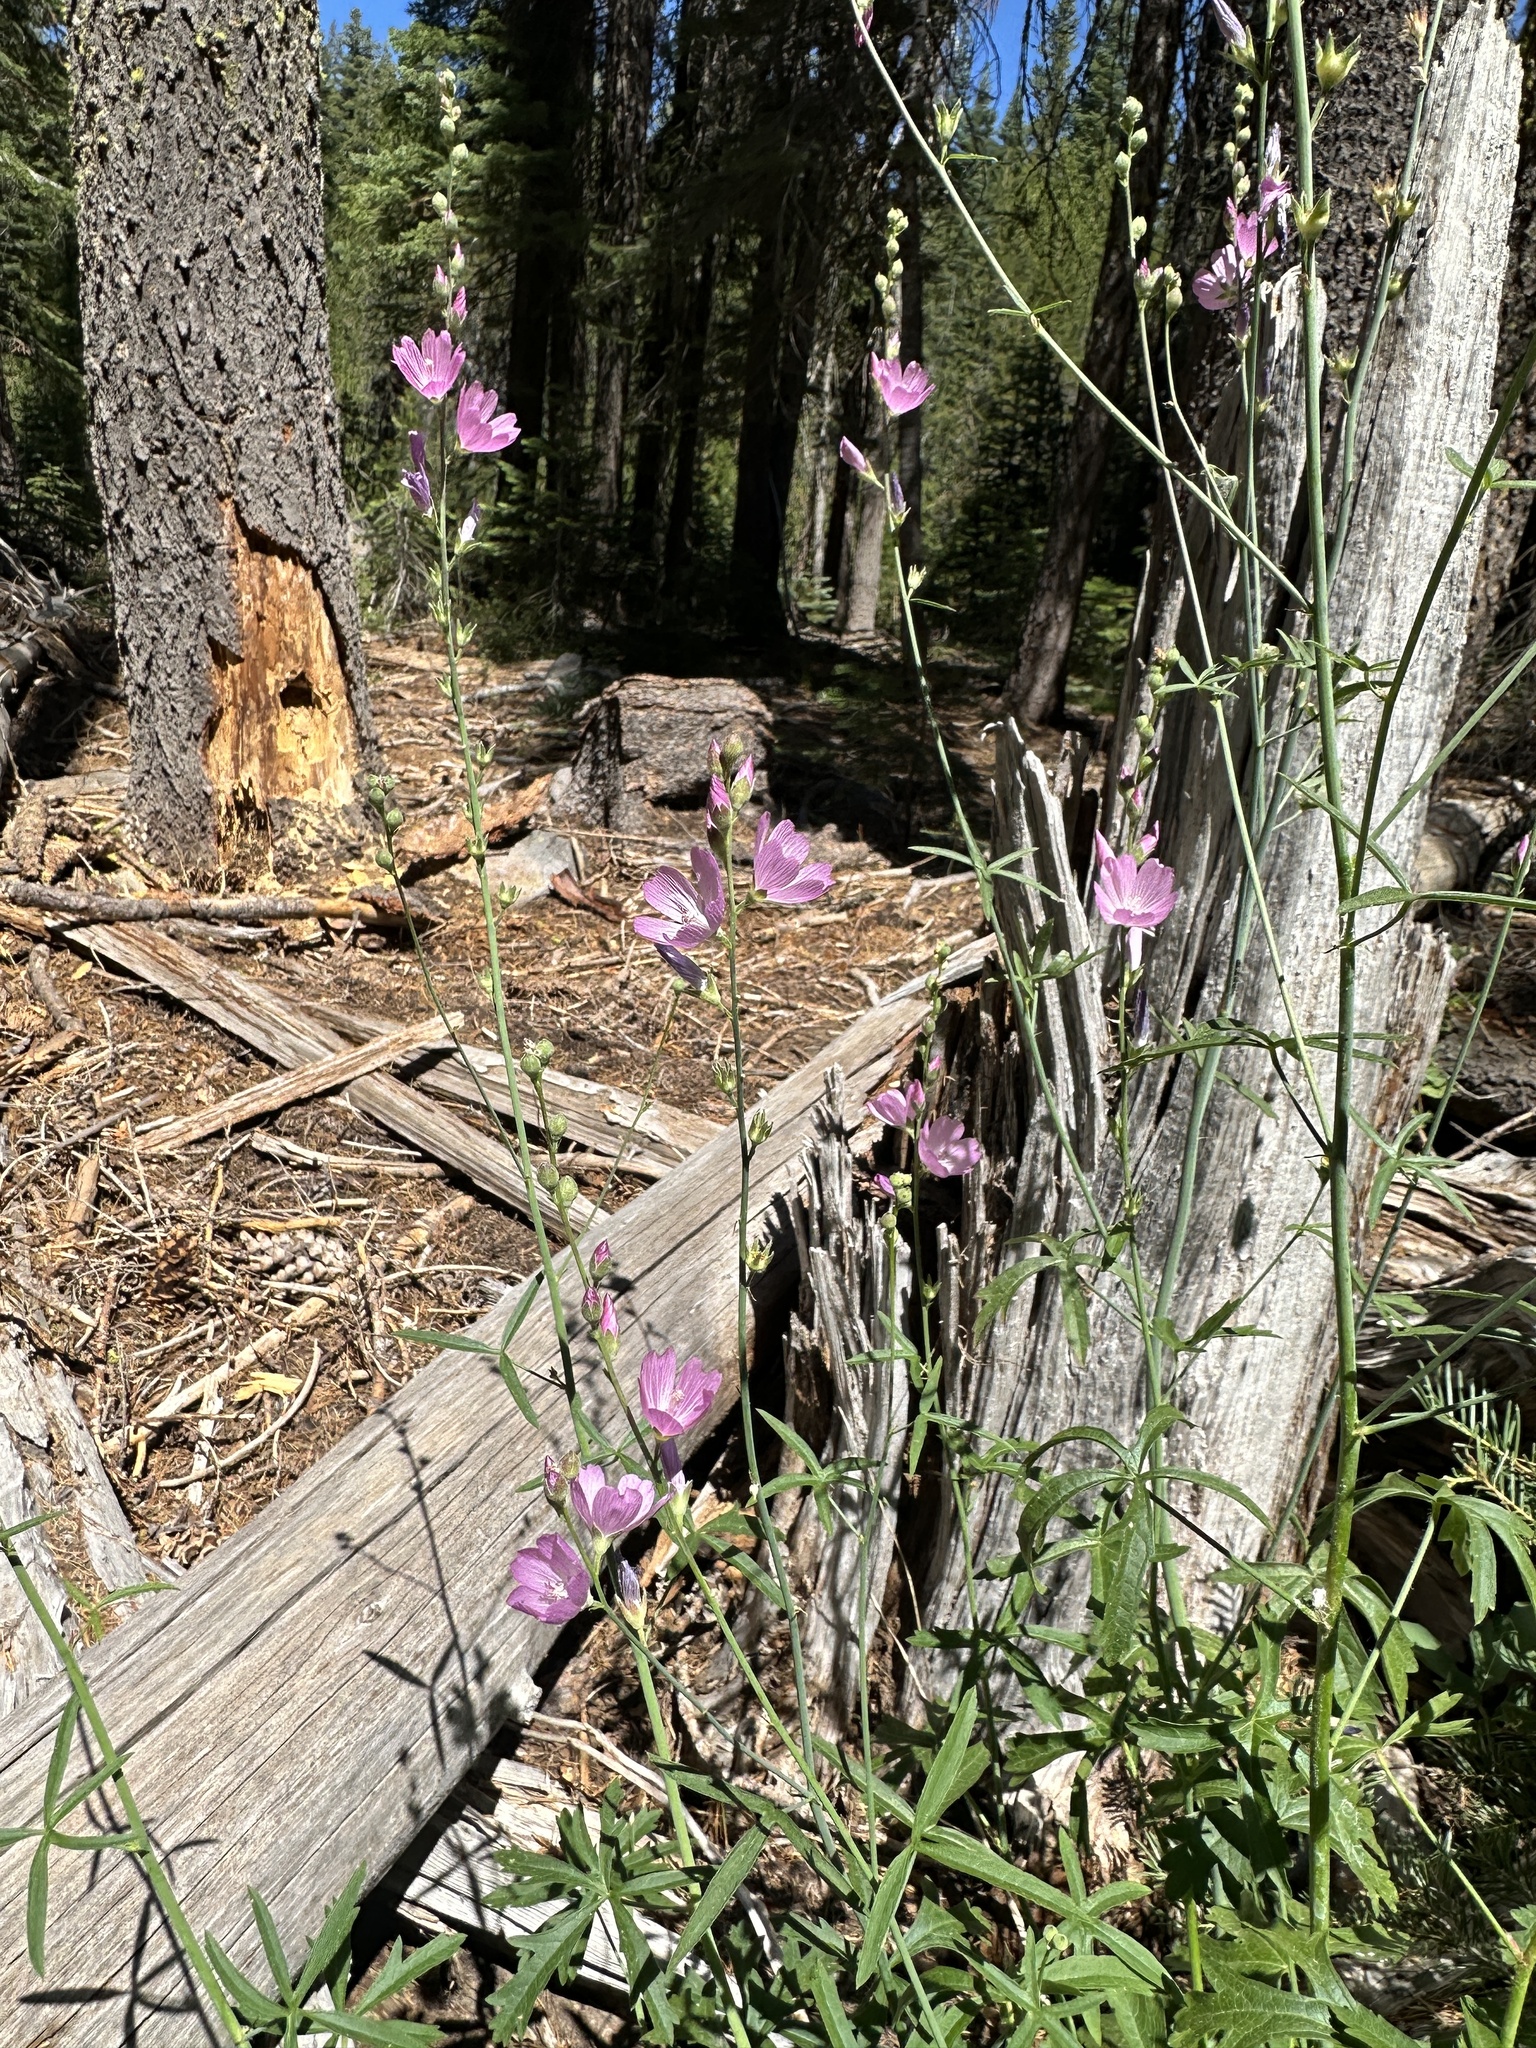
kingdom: Plantae
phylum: Tracheophyta
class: Magnoliopsida
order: Malvales
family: Malvaceae
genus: Sidalcea
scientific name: Sidalcea gigantea
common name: Giant checkerbloom
